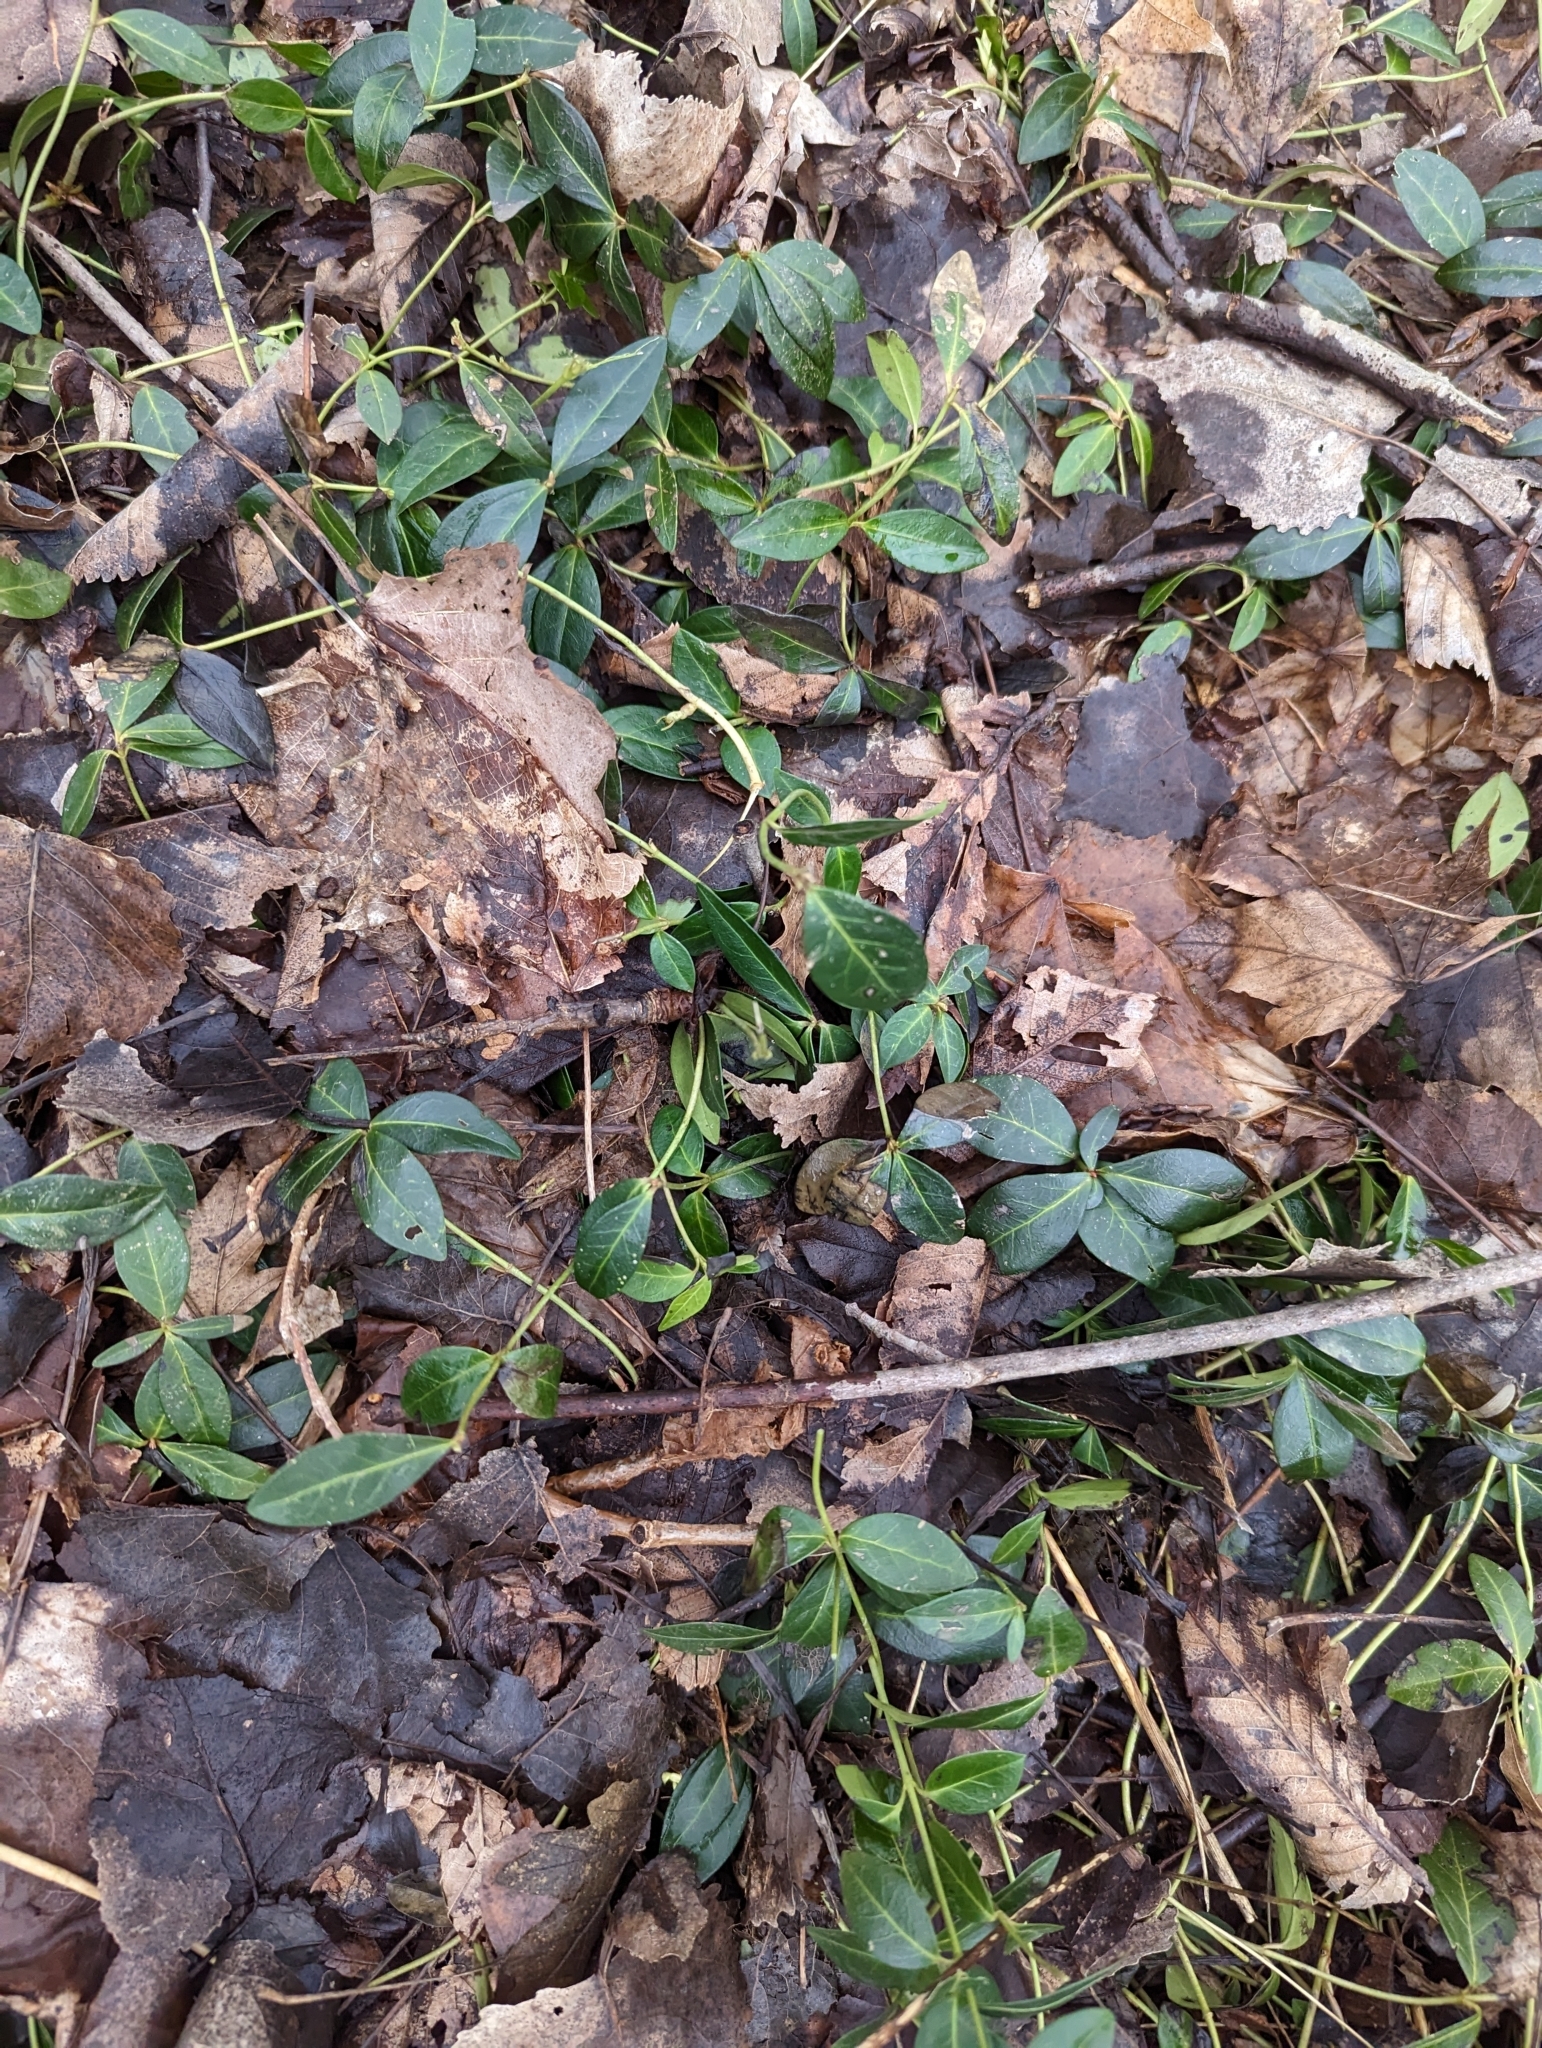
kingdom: Plantae
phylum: Tracheophyta
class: Magnoliopsida
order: Gentianales
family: Apocynaceae
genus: Vinca
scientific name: Vinca minor
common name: Lesser periwinkle
